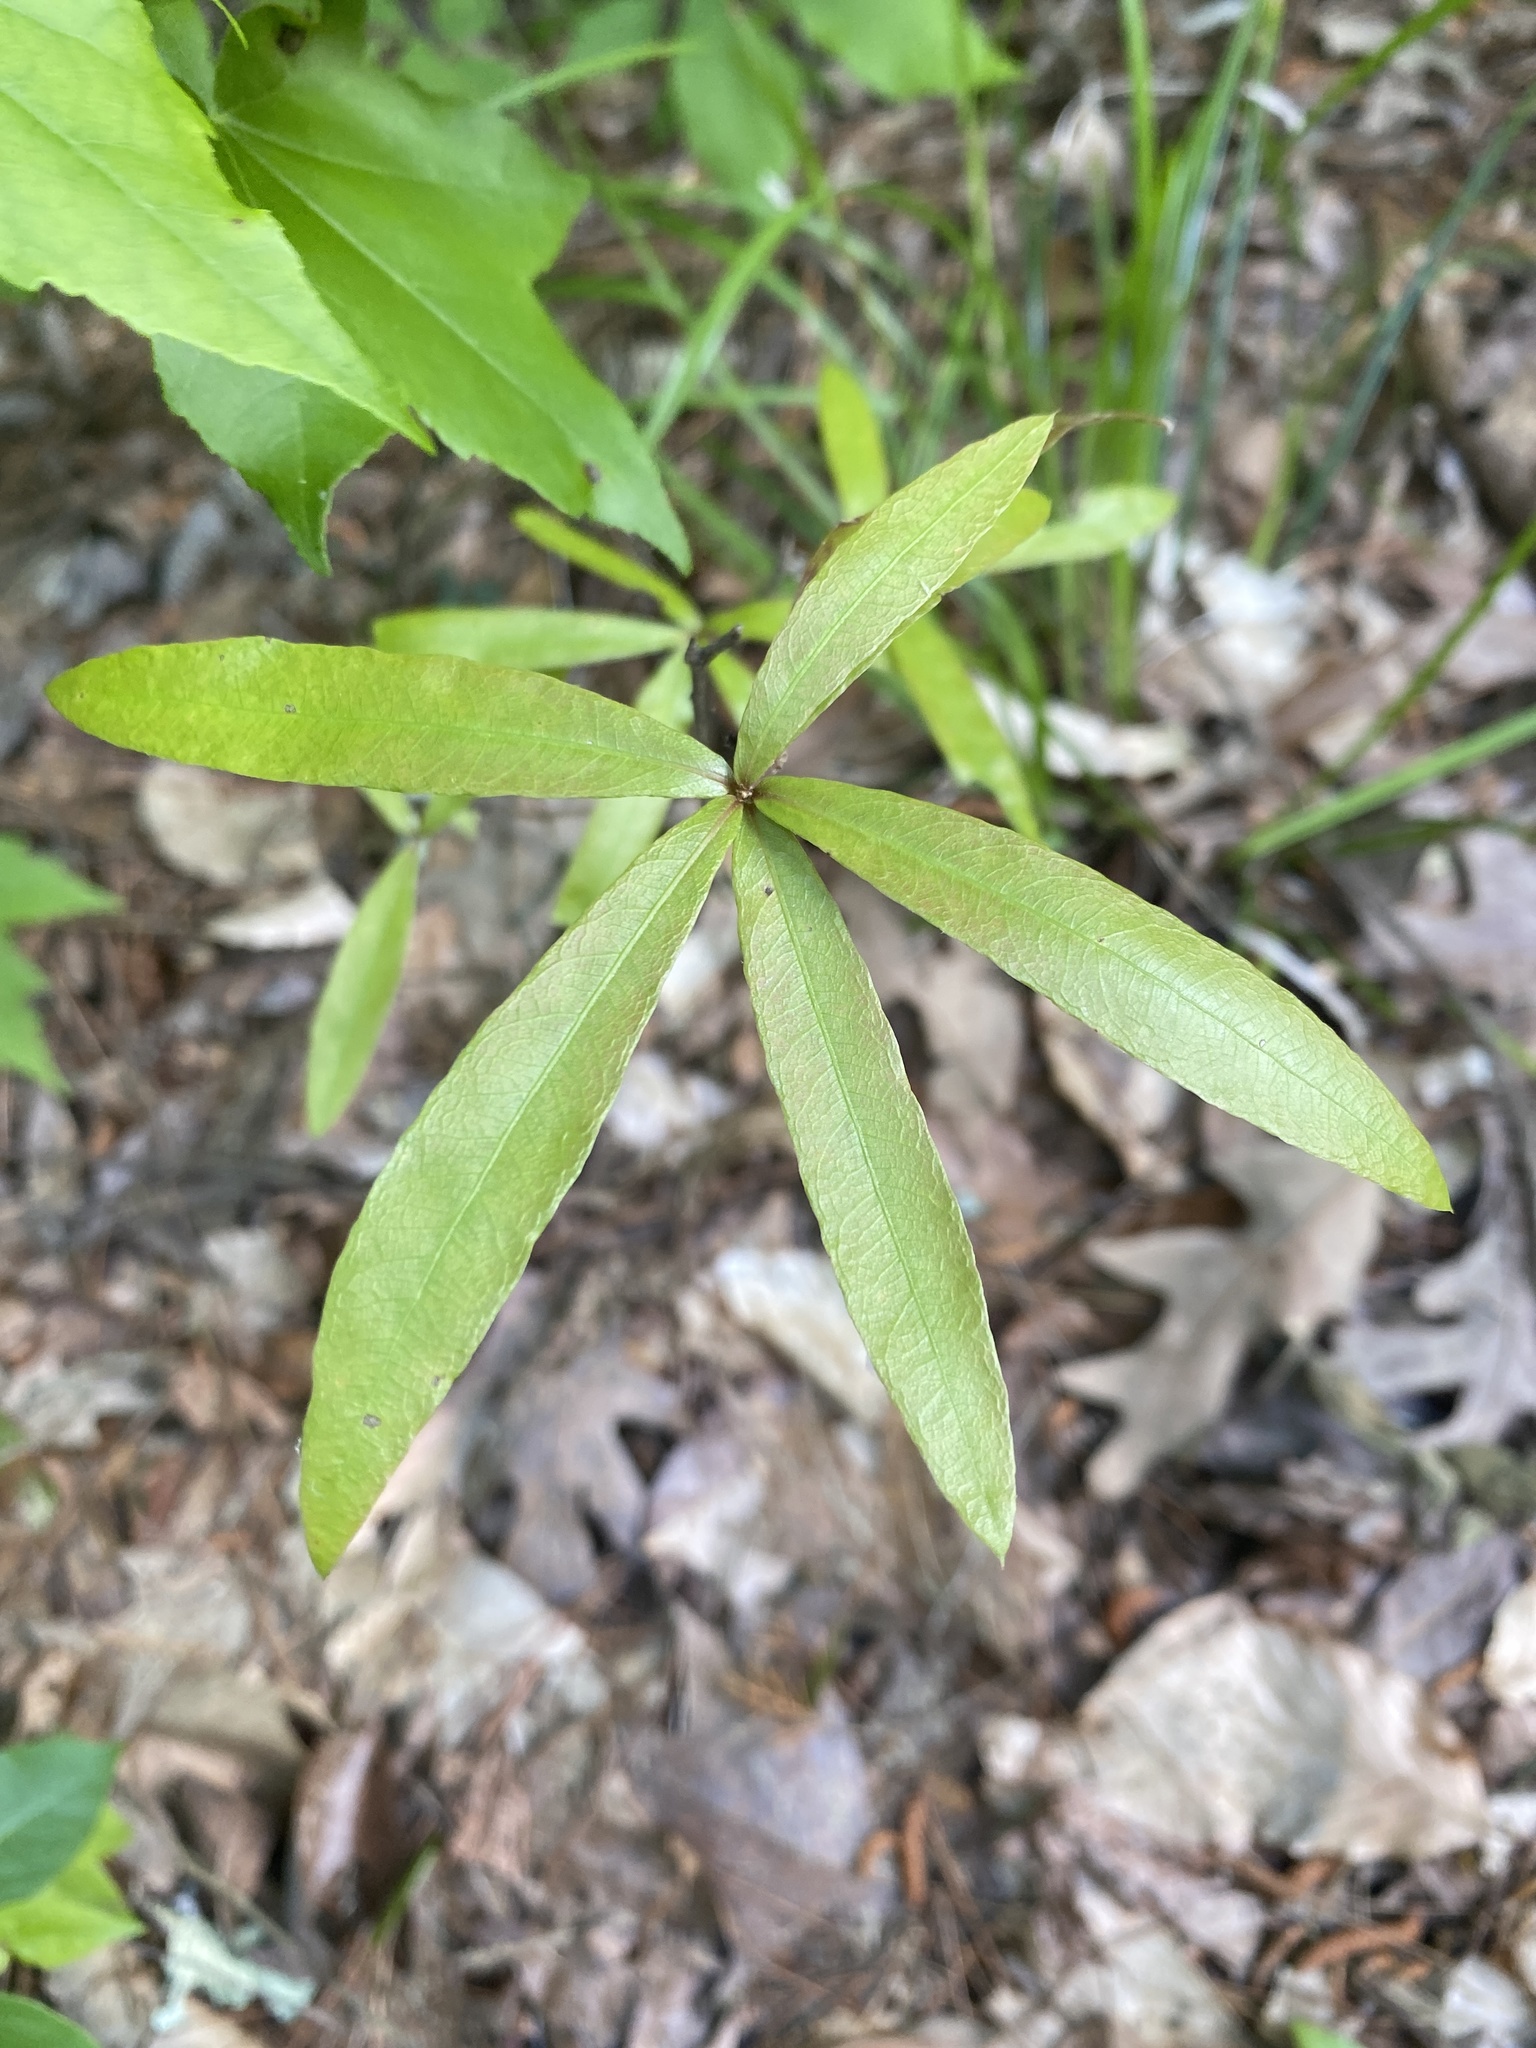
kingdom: Plantae
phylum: Tracheophyta
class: Magnoliopsida
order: Fagales
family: Fagaceae
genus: Quercus
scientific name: Quercus phellos
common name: Willow oak
